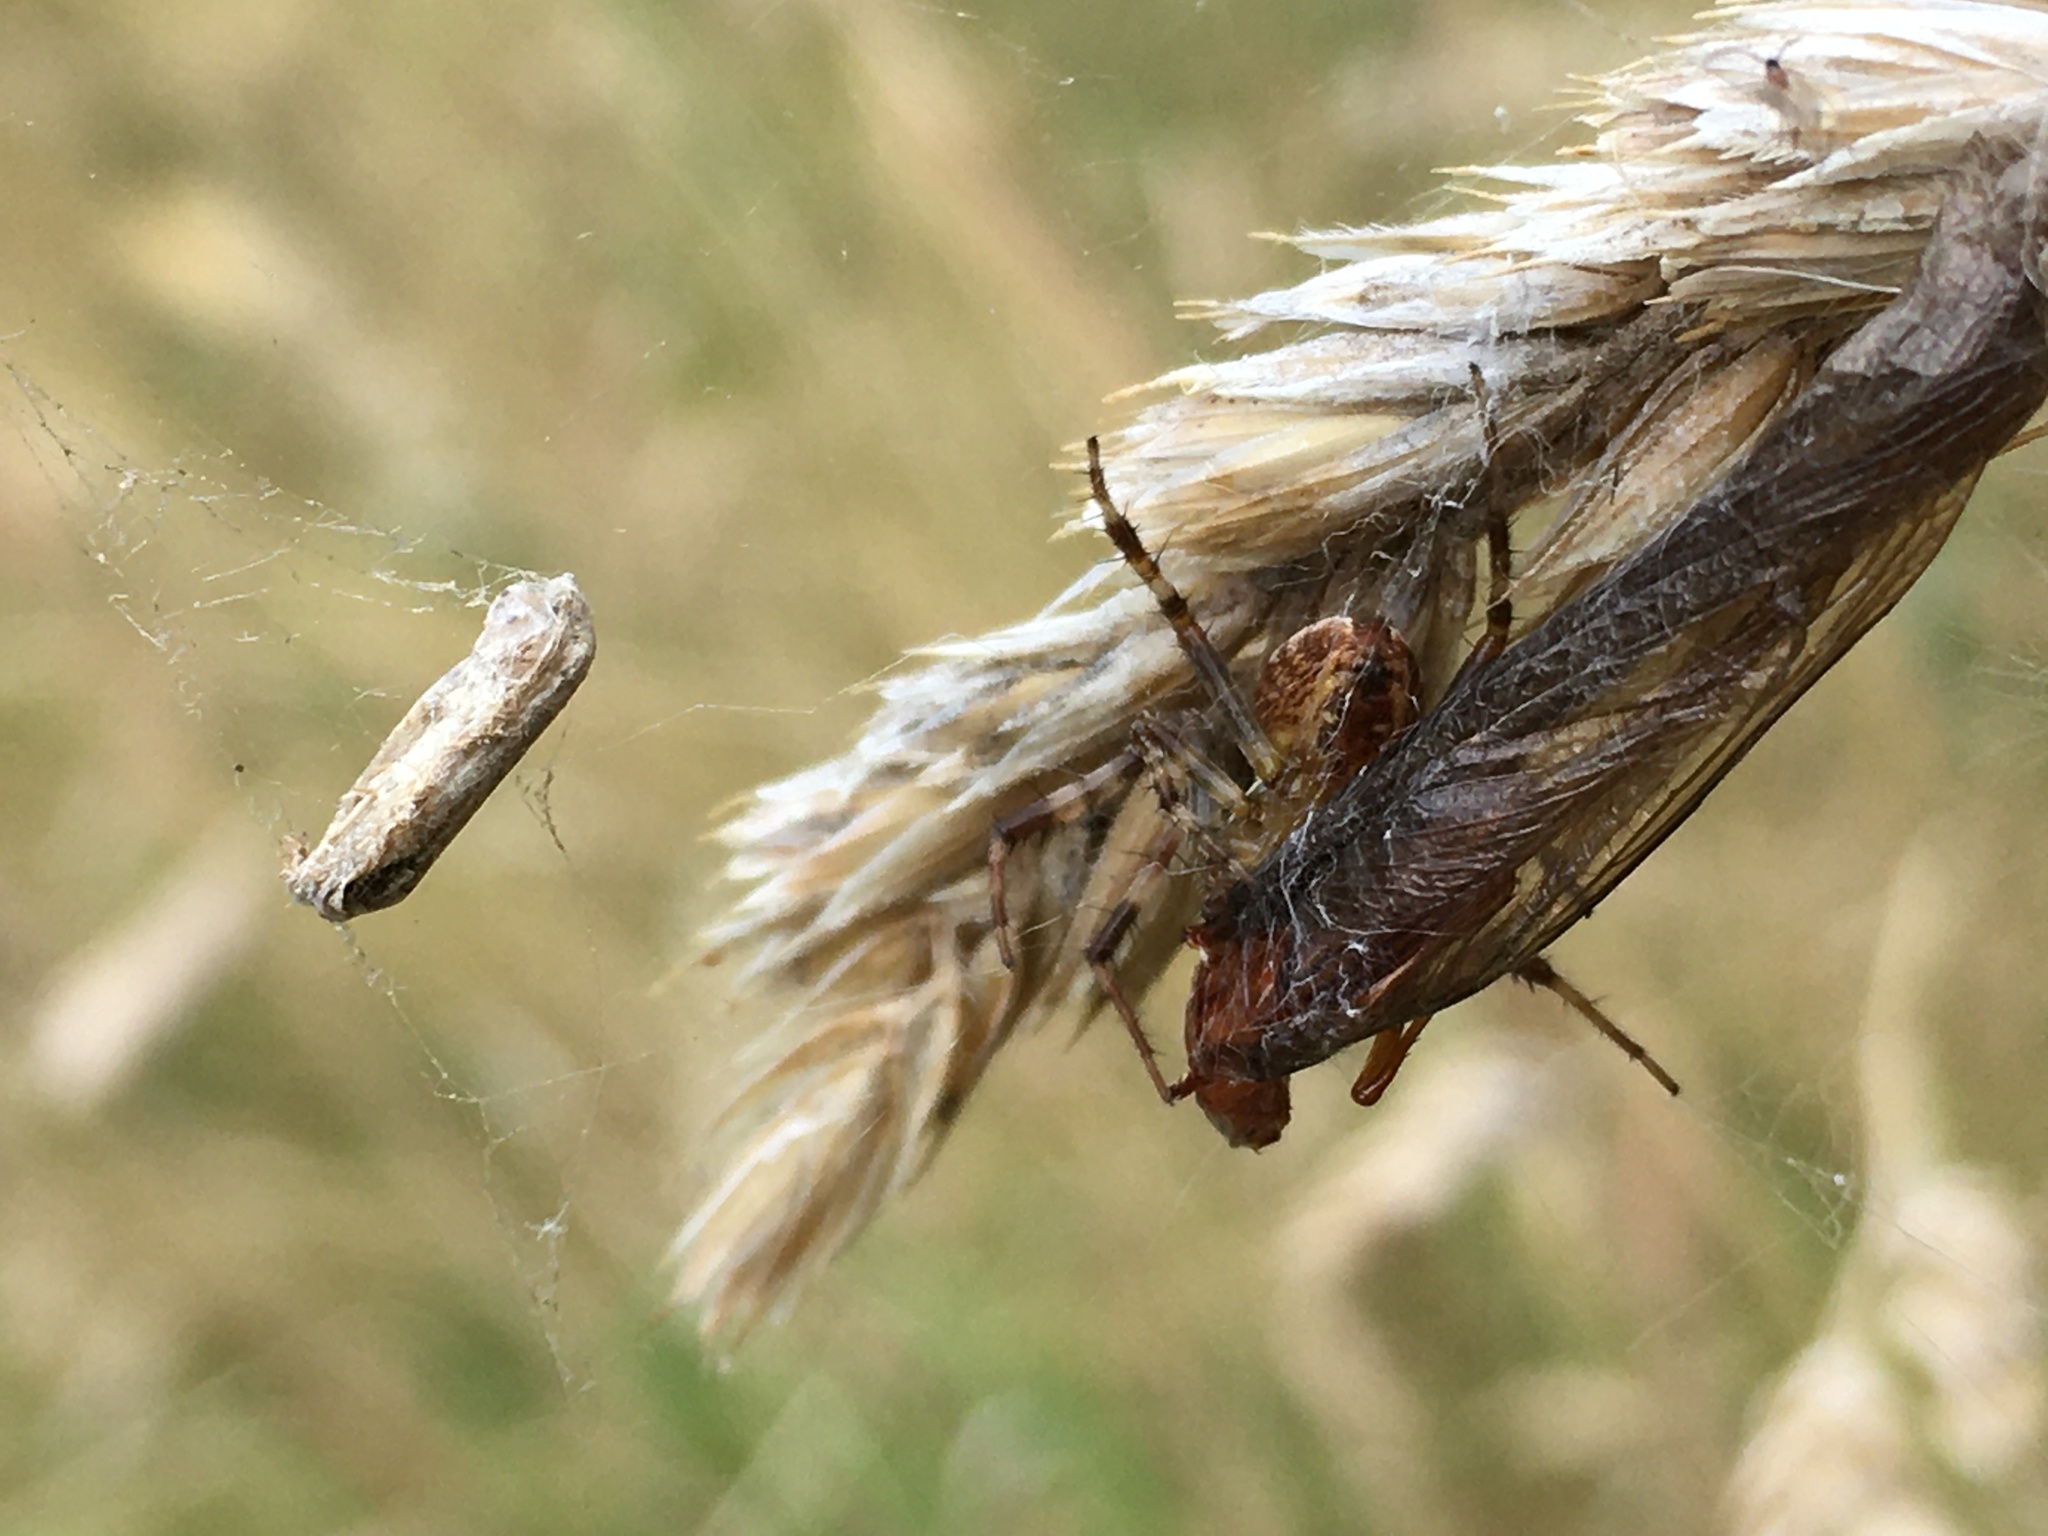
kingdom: Animalia
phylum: Arthropoda
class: Arachnida
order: Araneae
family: Araneidae
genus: Araneus
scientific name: Araneus diadematus
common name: Cross orbweaver
